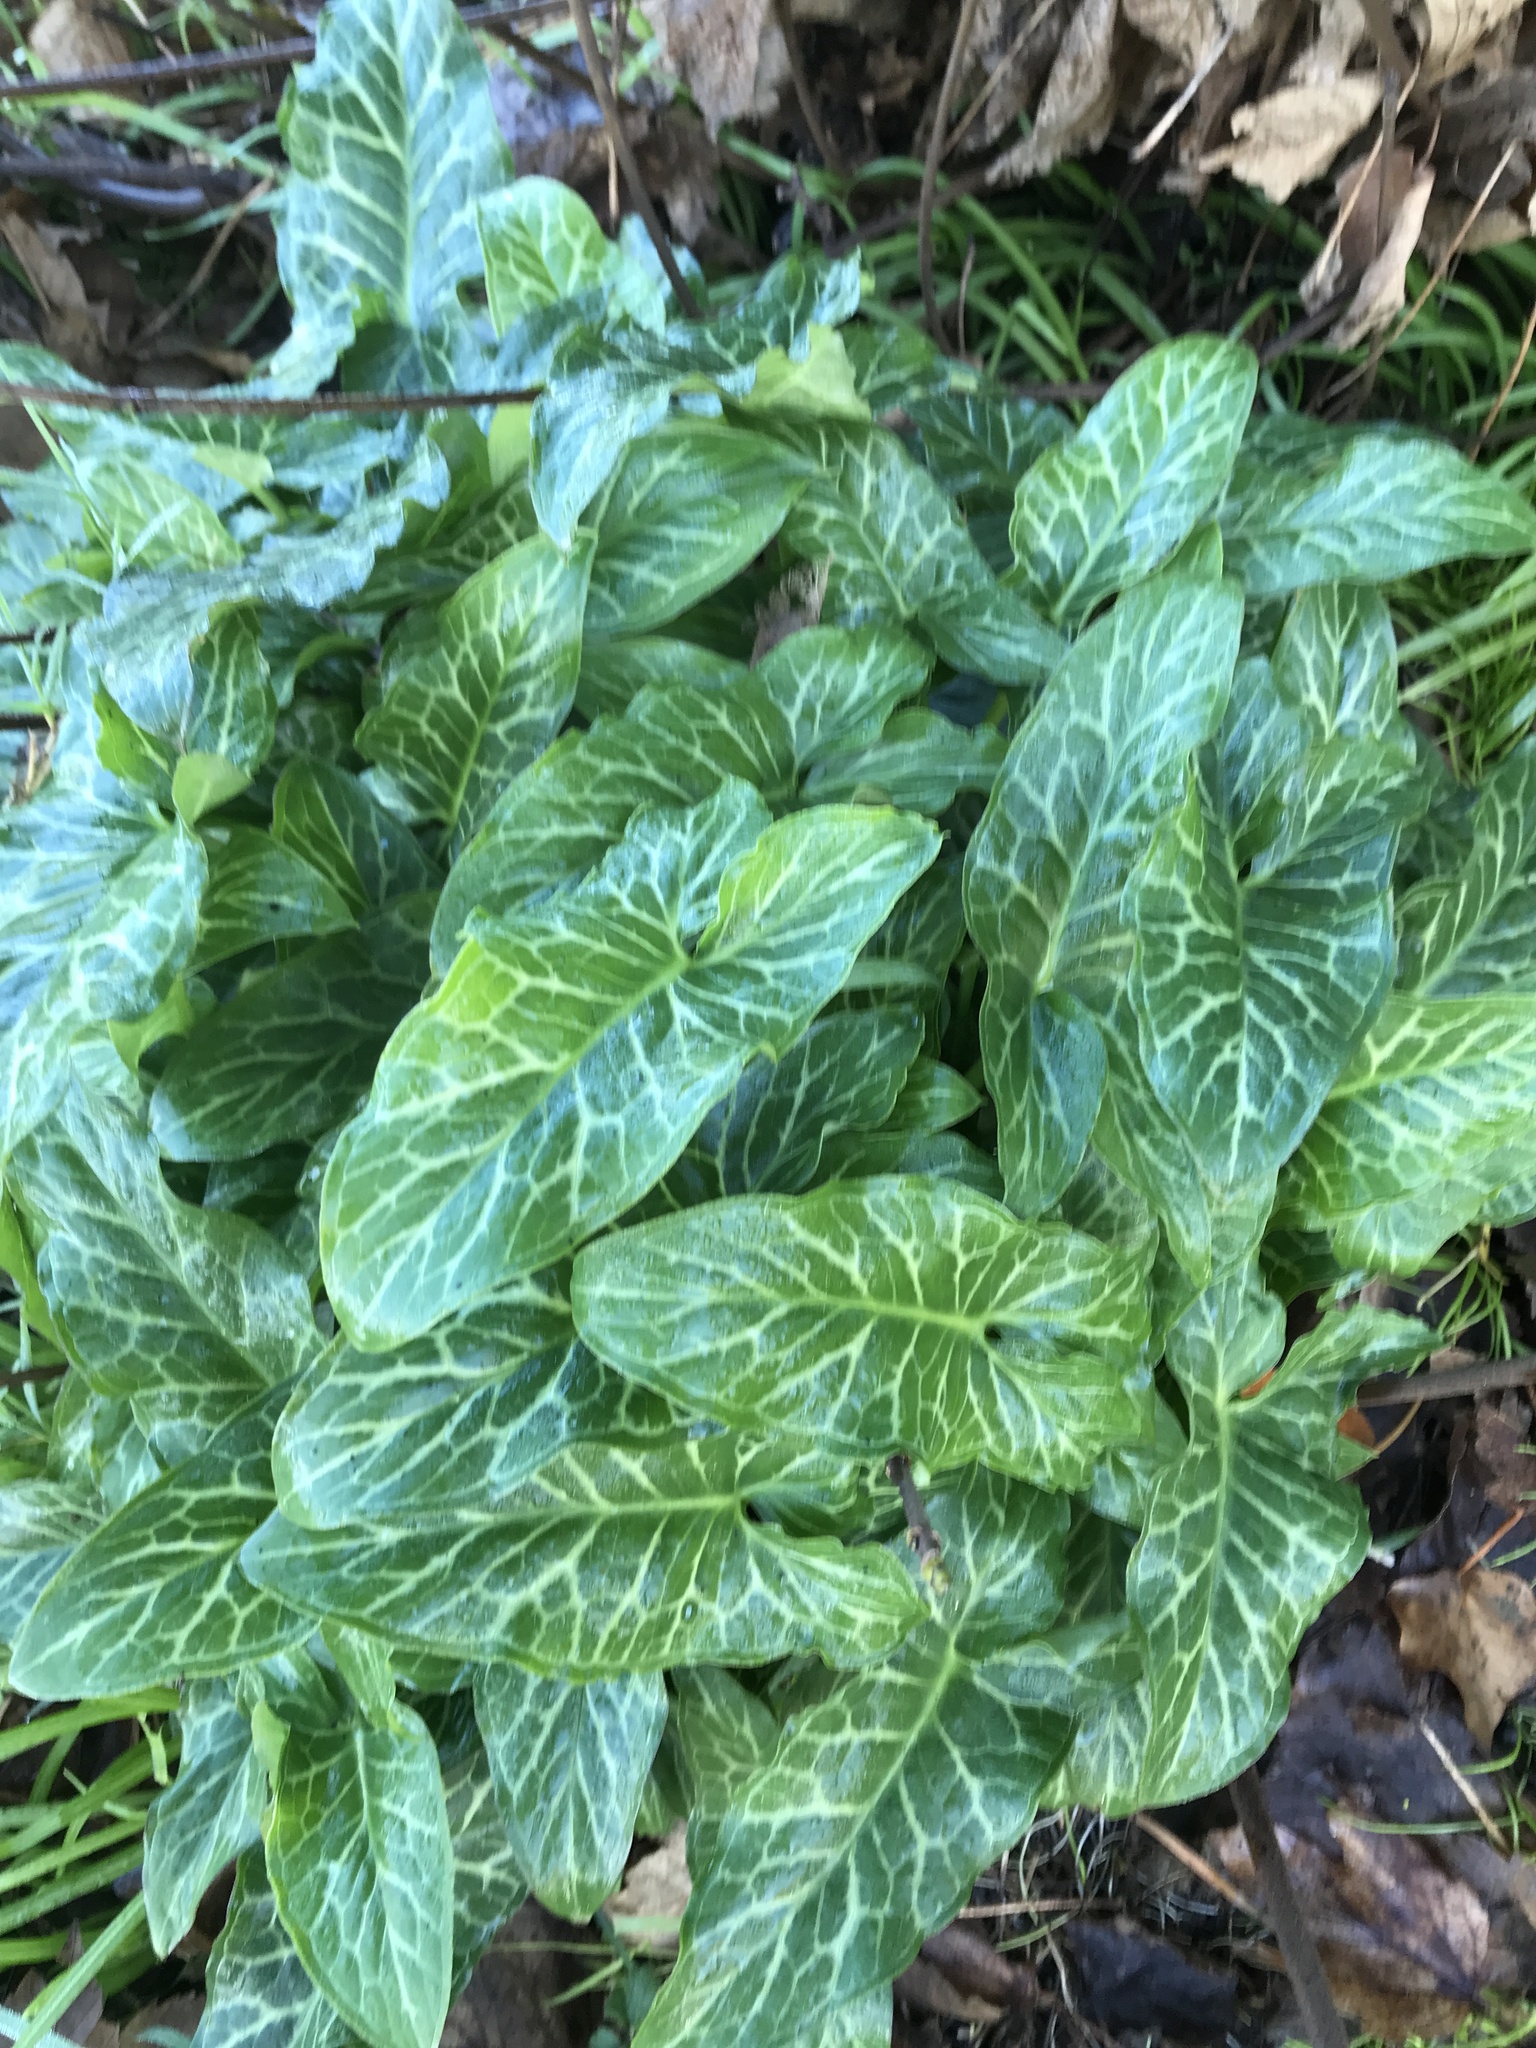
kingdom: Plantae
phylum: Tracheophyta
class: Liliopsida
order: Alismatales
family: Araceae
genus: Arum
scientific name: Arum italicum
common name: Italian lords-and-ladies
